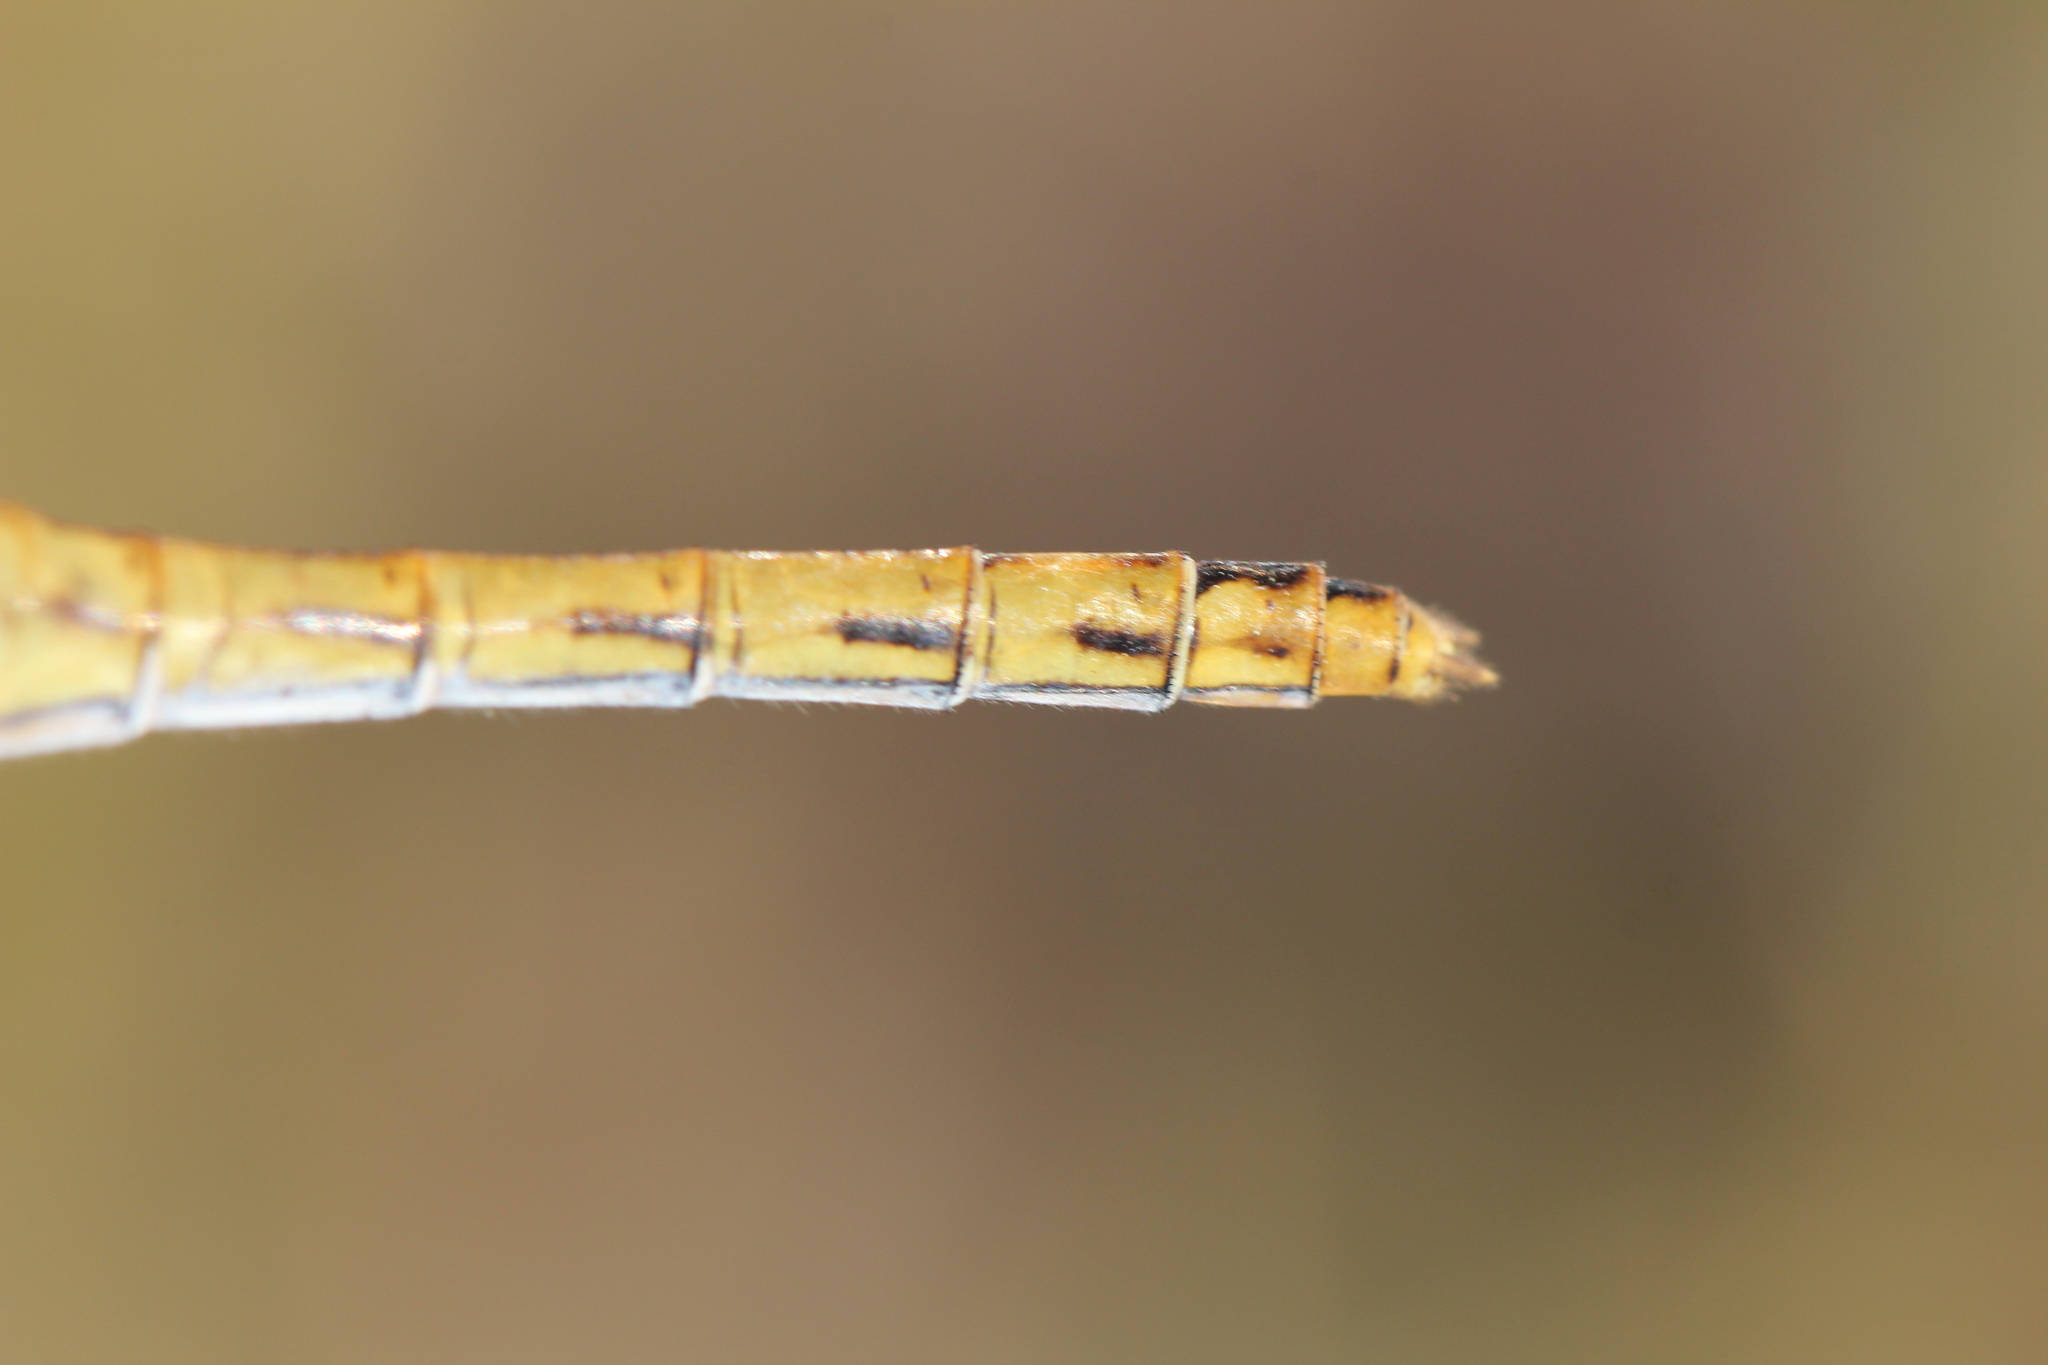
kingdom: Animalia
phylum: Arthropoda
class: Insecta
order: Odonata
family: Libellulidae
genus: Sympetrum
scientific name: Sympetrum meridionale
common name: Southern darter
